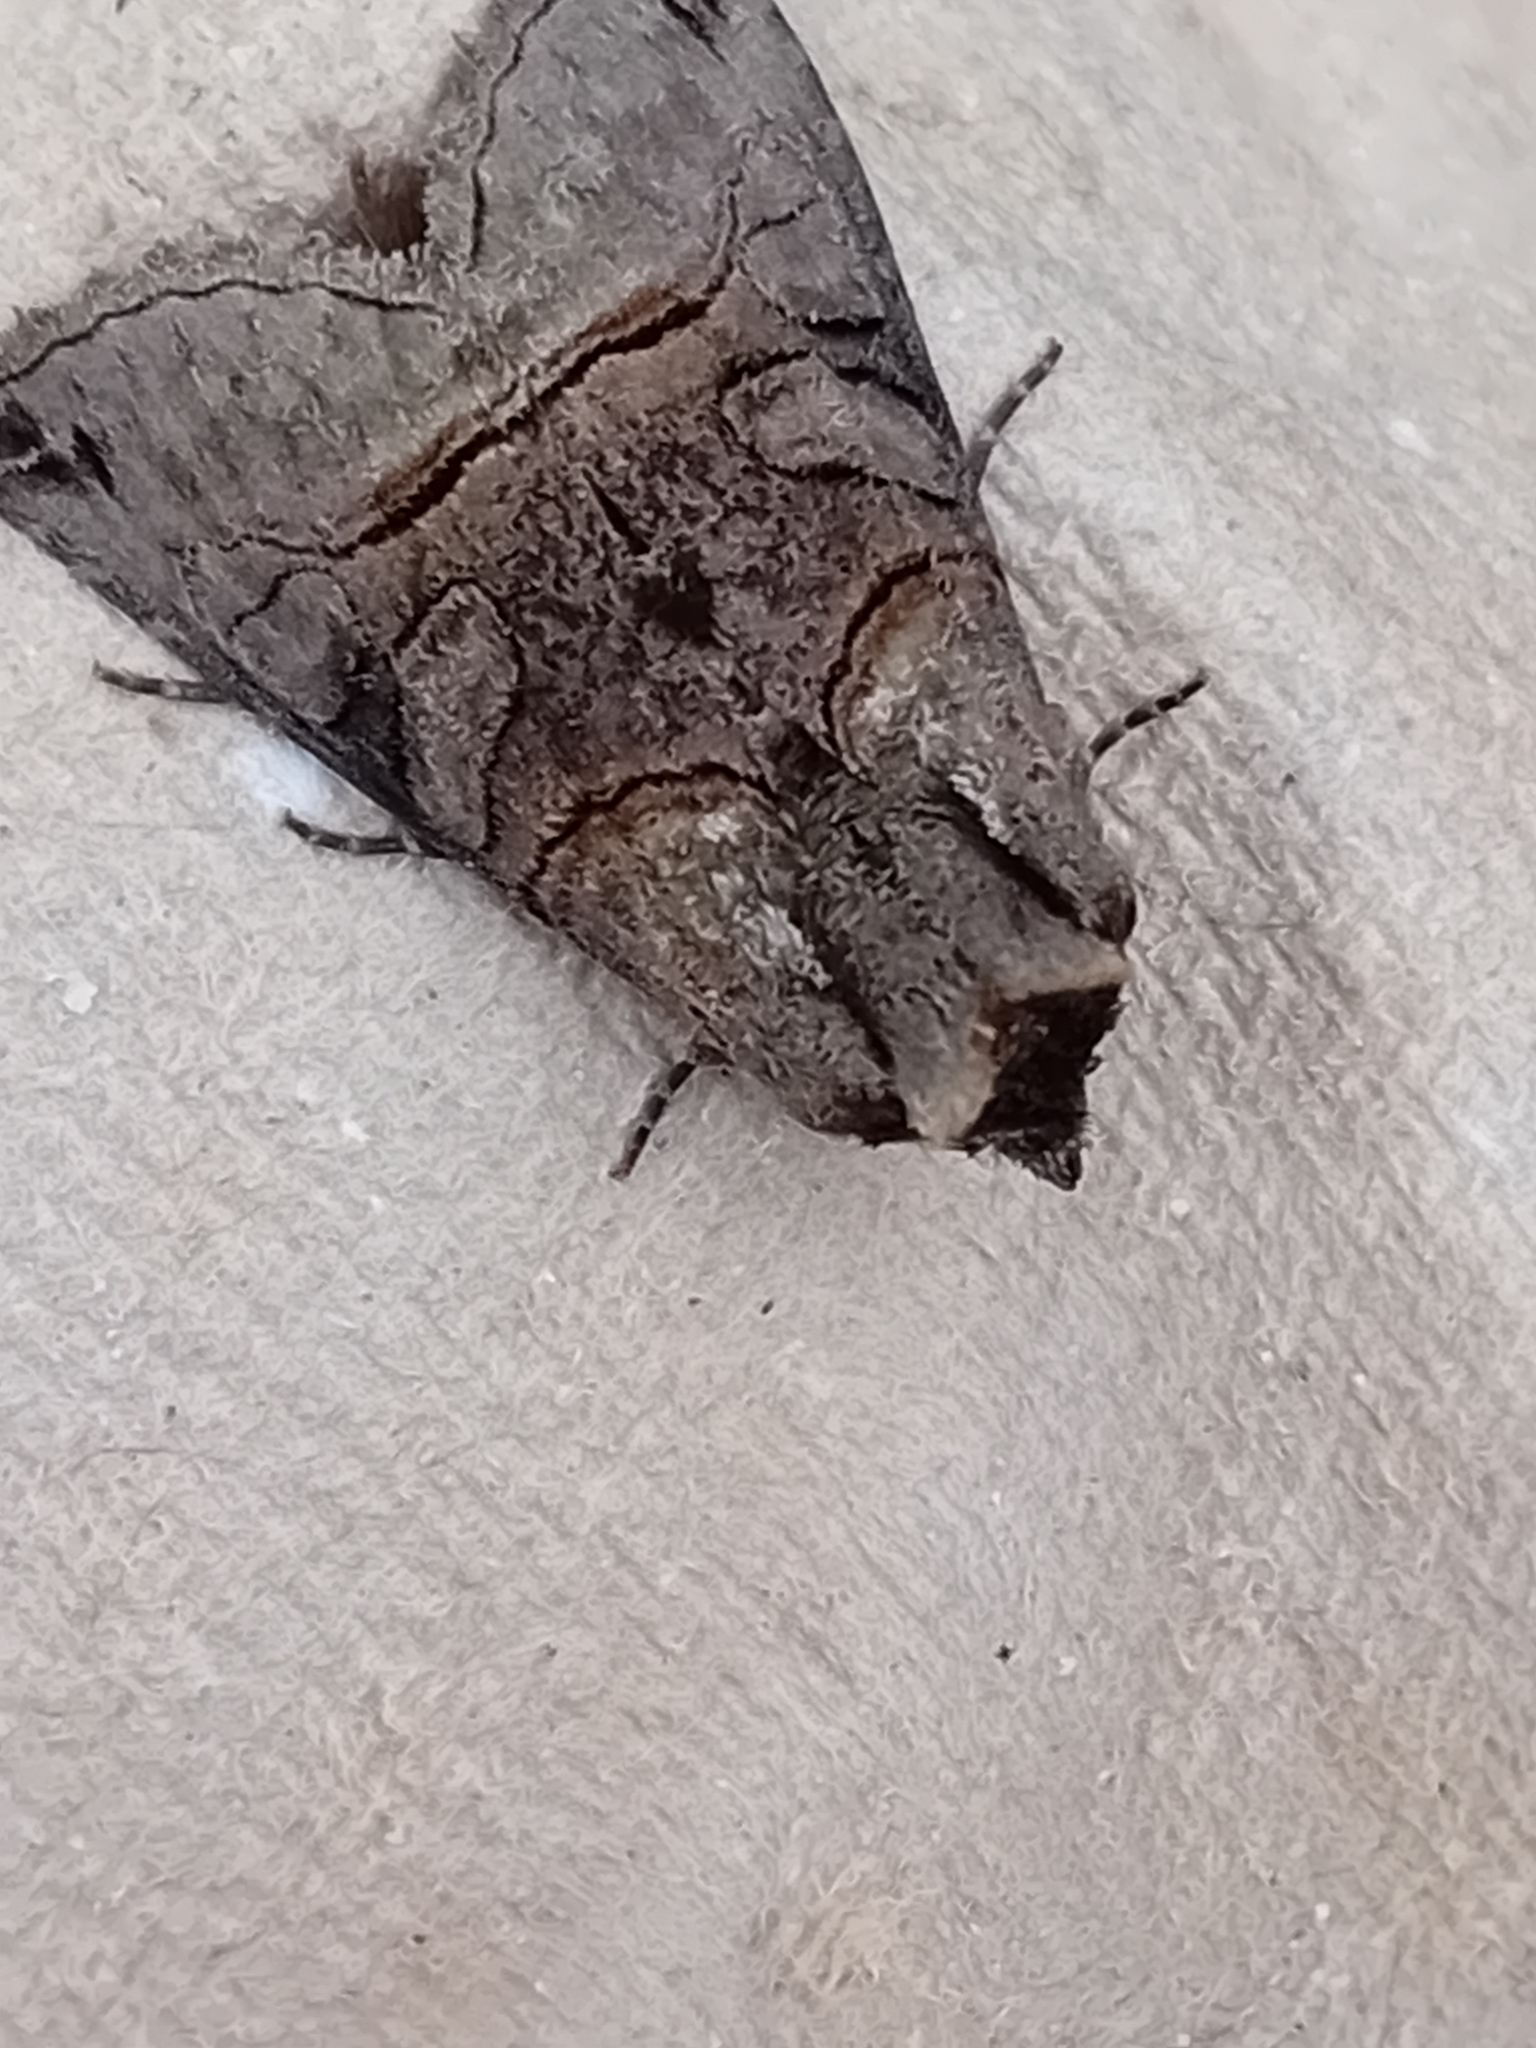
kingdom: Animalia
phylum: Arthropoda
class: Insecta
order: Lepidoptera
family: Noctuidae
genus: Abrostola
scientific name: Abrostola tripartita
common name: Spectacle
